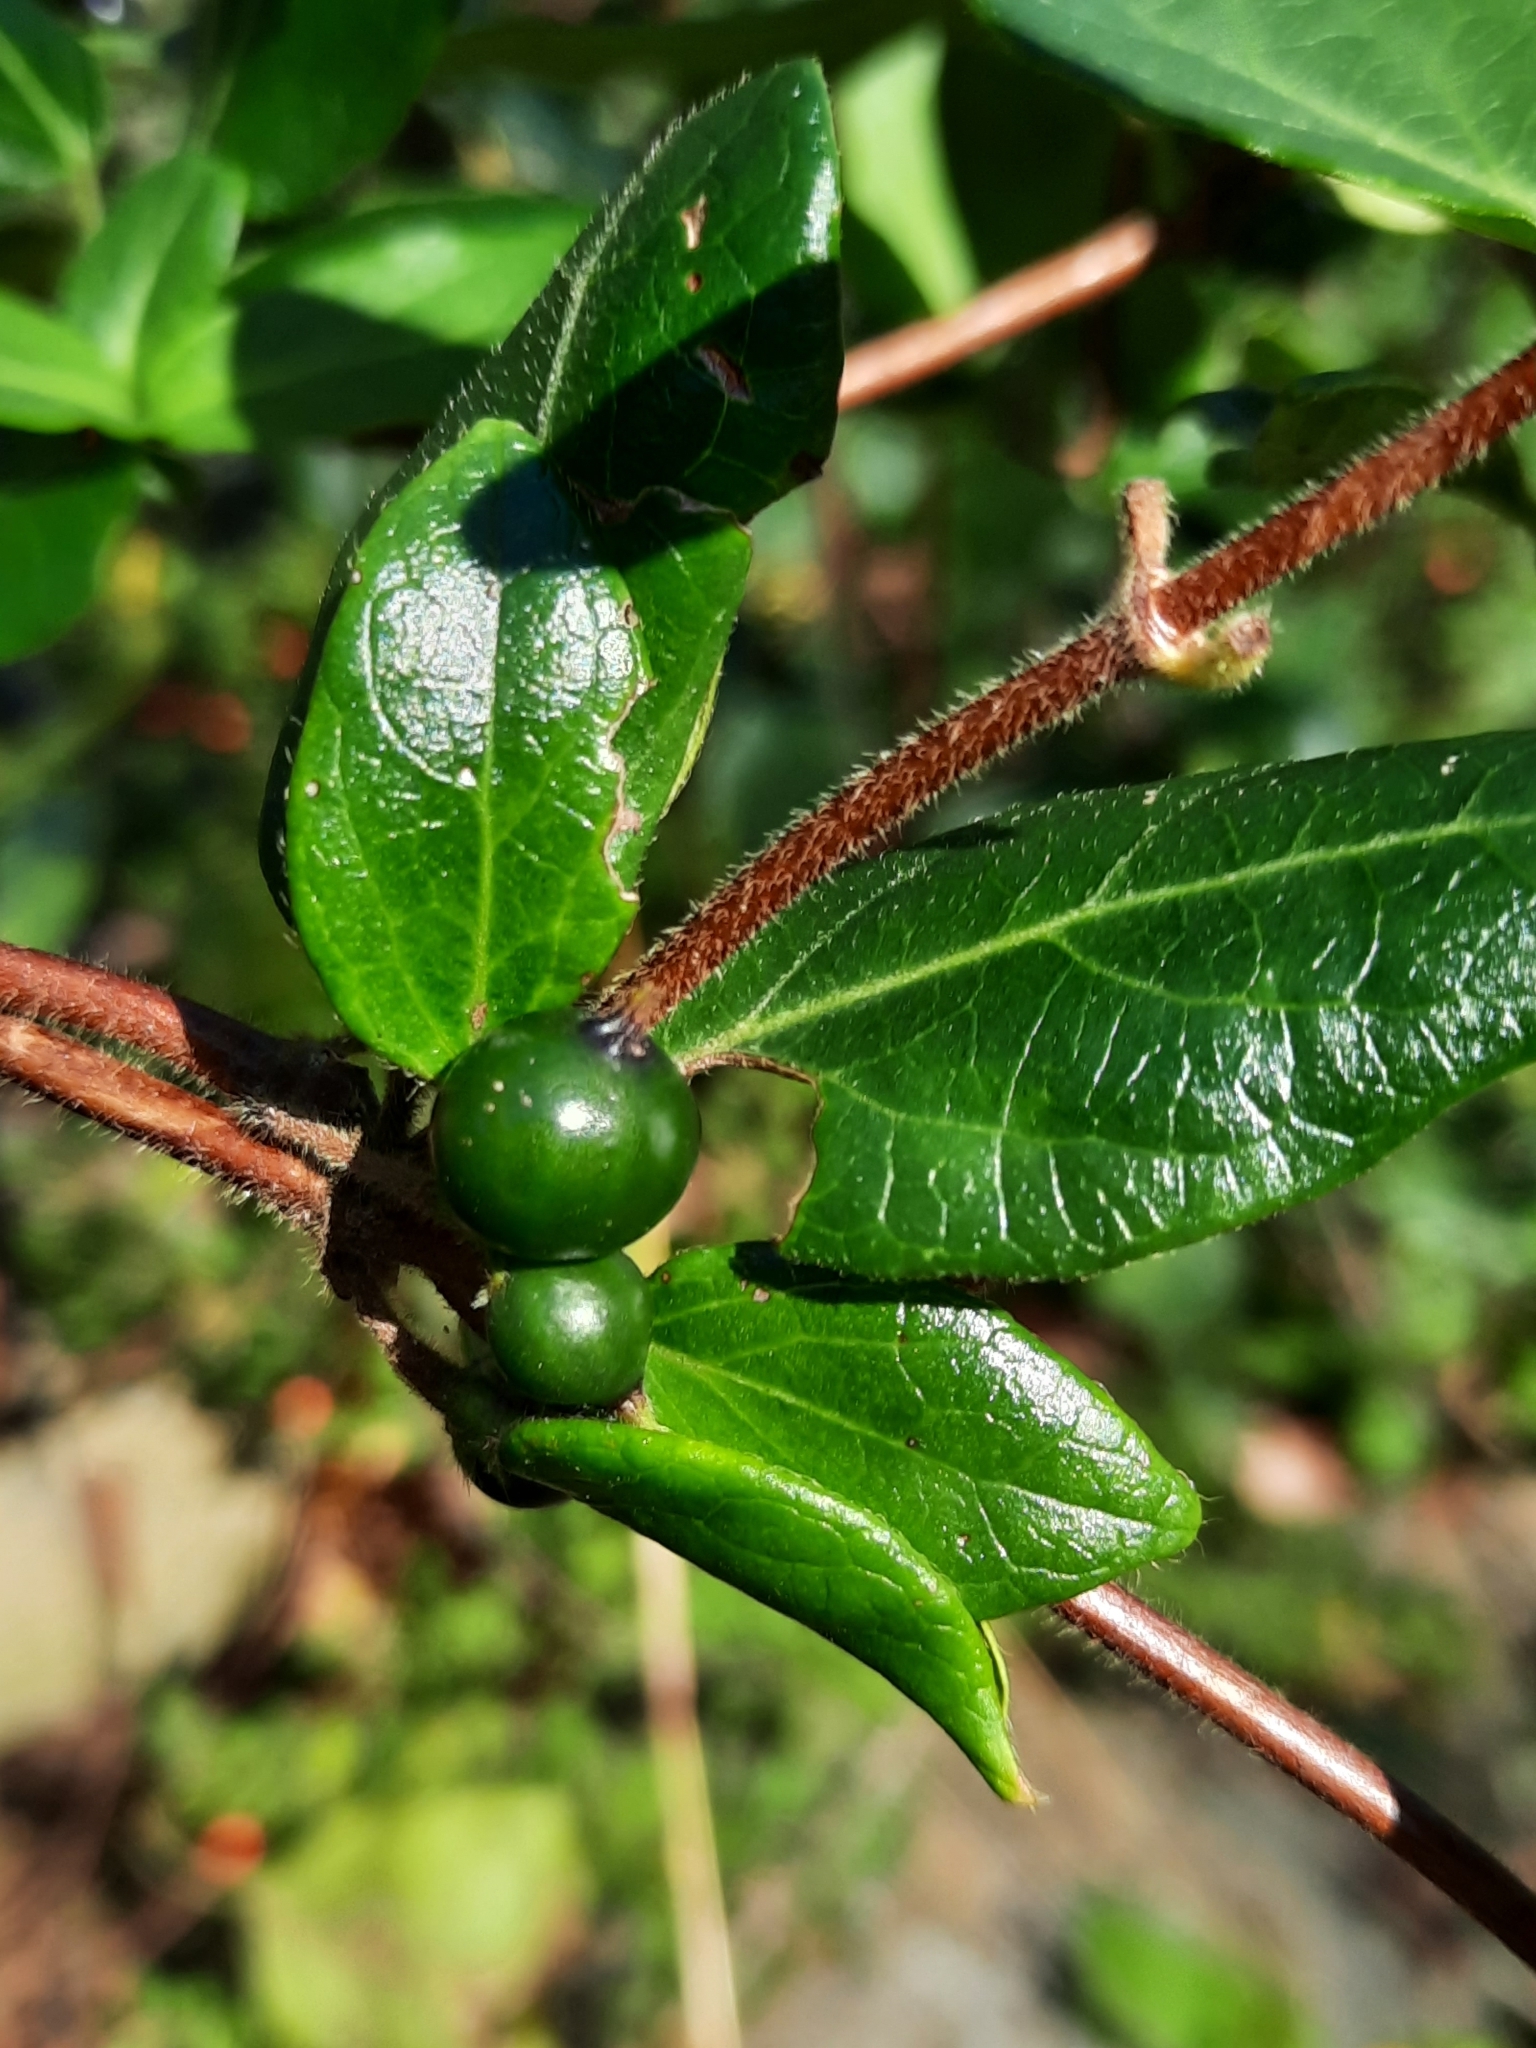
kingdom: Plantae
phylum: Tracheophyta
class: Magnoliopsida
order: Dipsacales
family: Caprifoliaceae
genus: Lonicera
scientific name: Lonicera japonica
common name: Japanese honeysuckle
